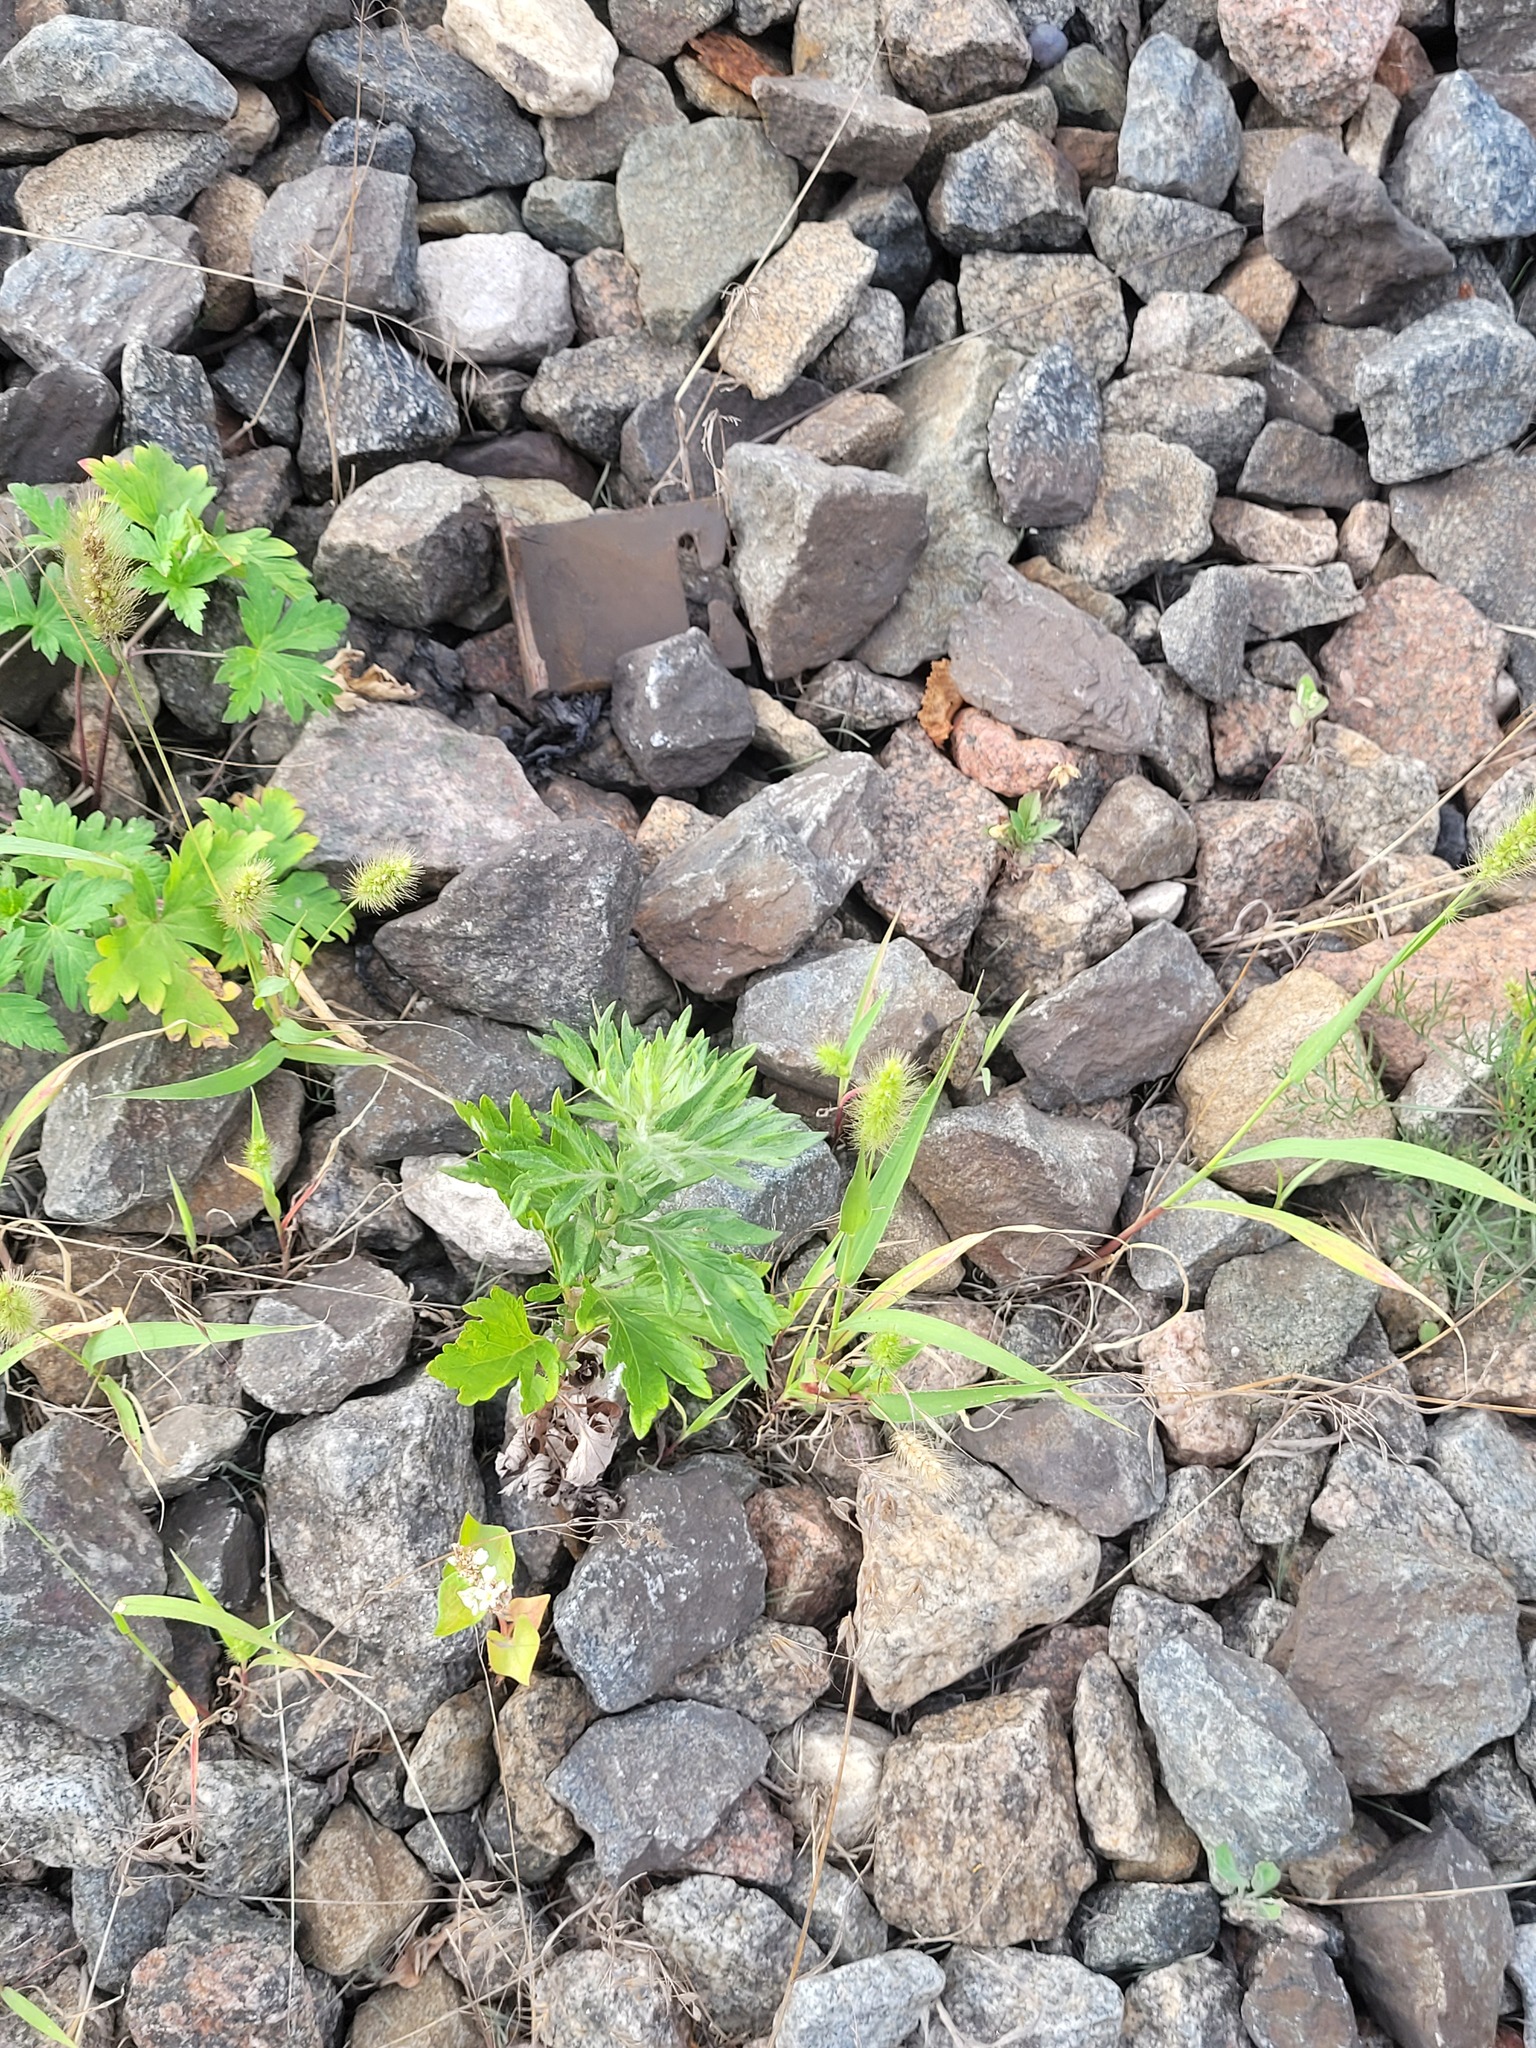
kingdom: Plantae
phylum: Tracheophyta
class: Magnoliopsida
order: Asterales
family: Asteraceae
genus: Artemisia
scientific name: Artemisia vulgaris
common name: Mugwort
